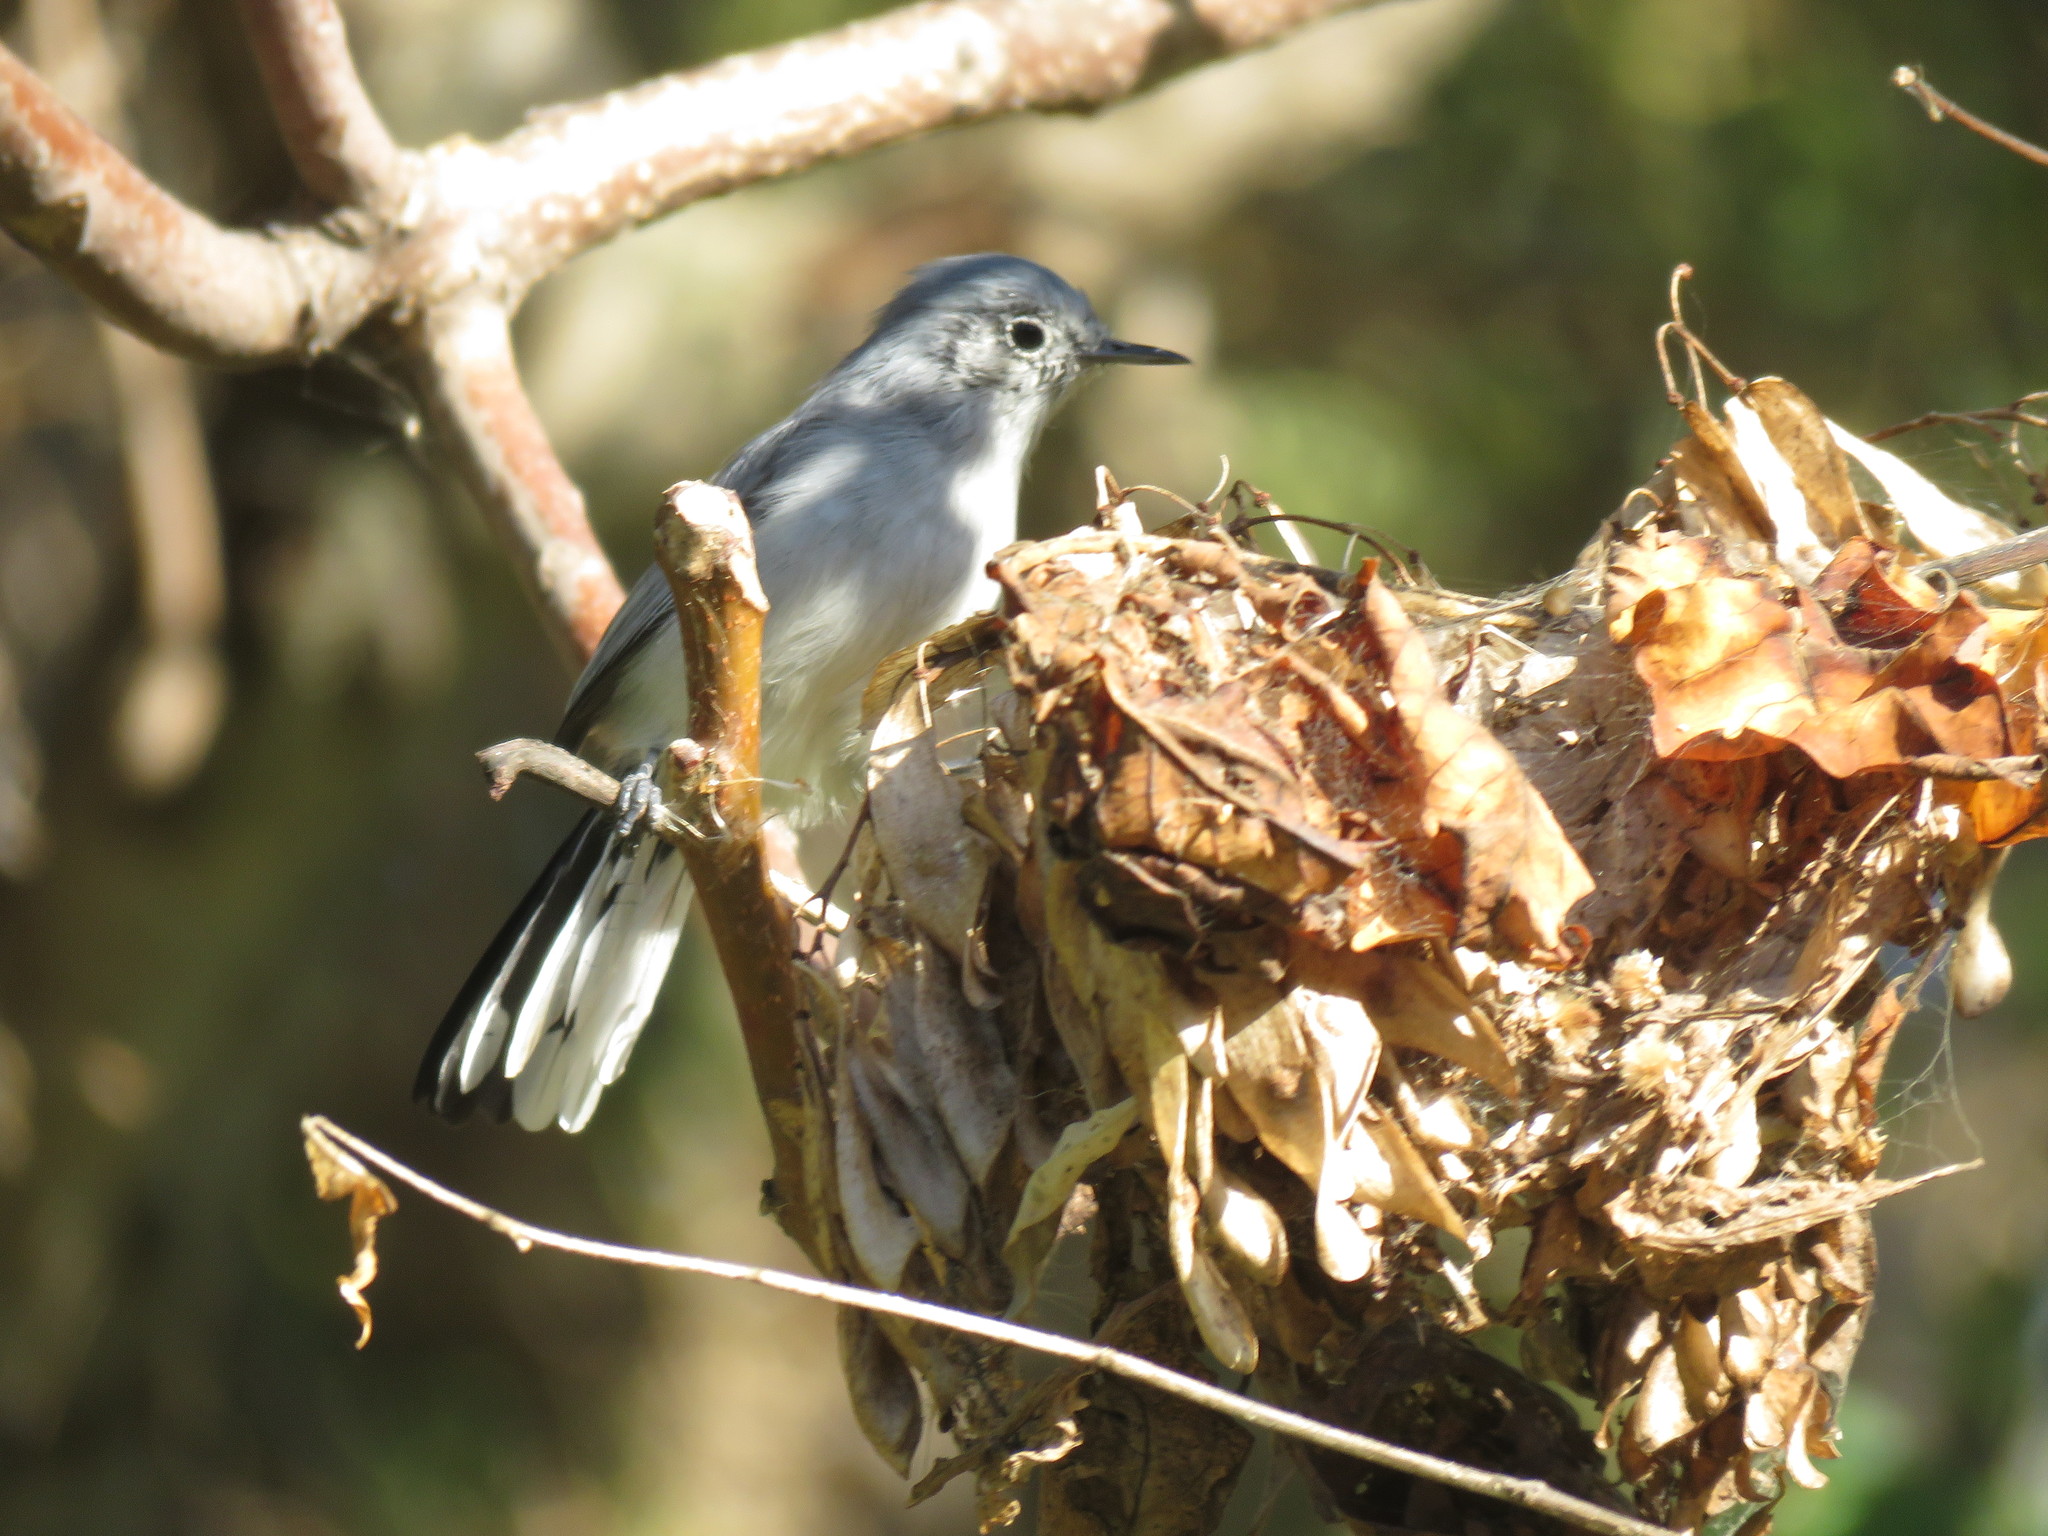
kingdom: Animalia
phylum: Chordata
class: Aves
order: Passeriformes
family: Polioptilidae
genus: Polioptila
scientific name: Polioptila dumicola
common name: Masked gnatcatcher
